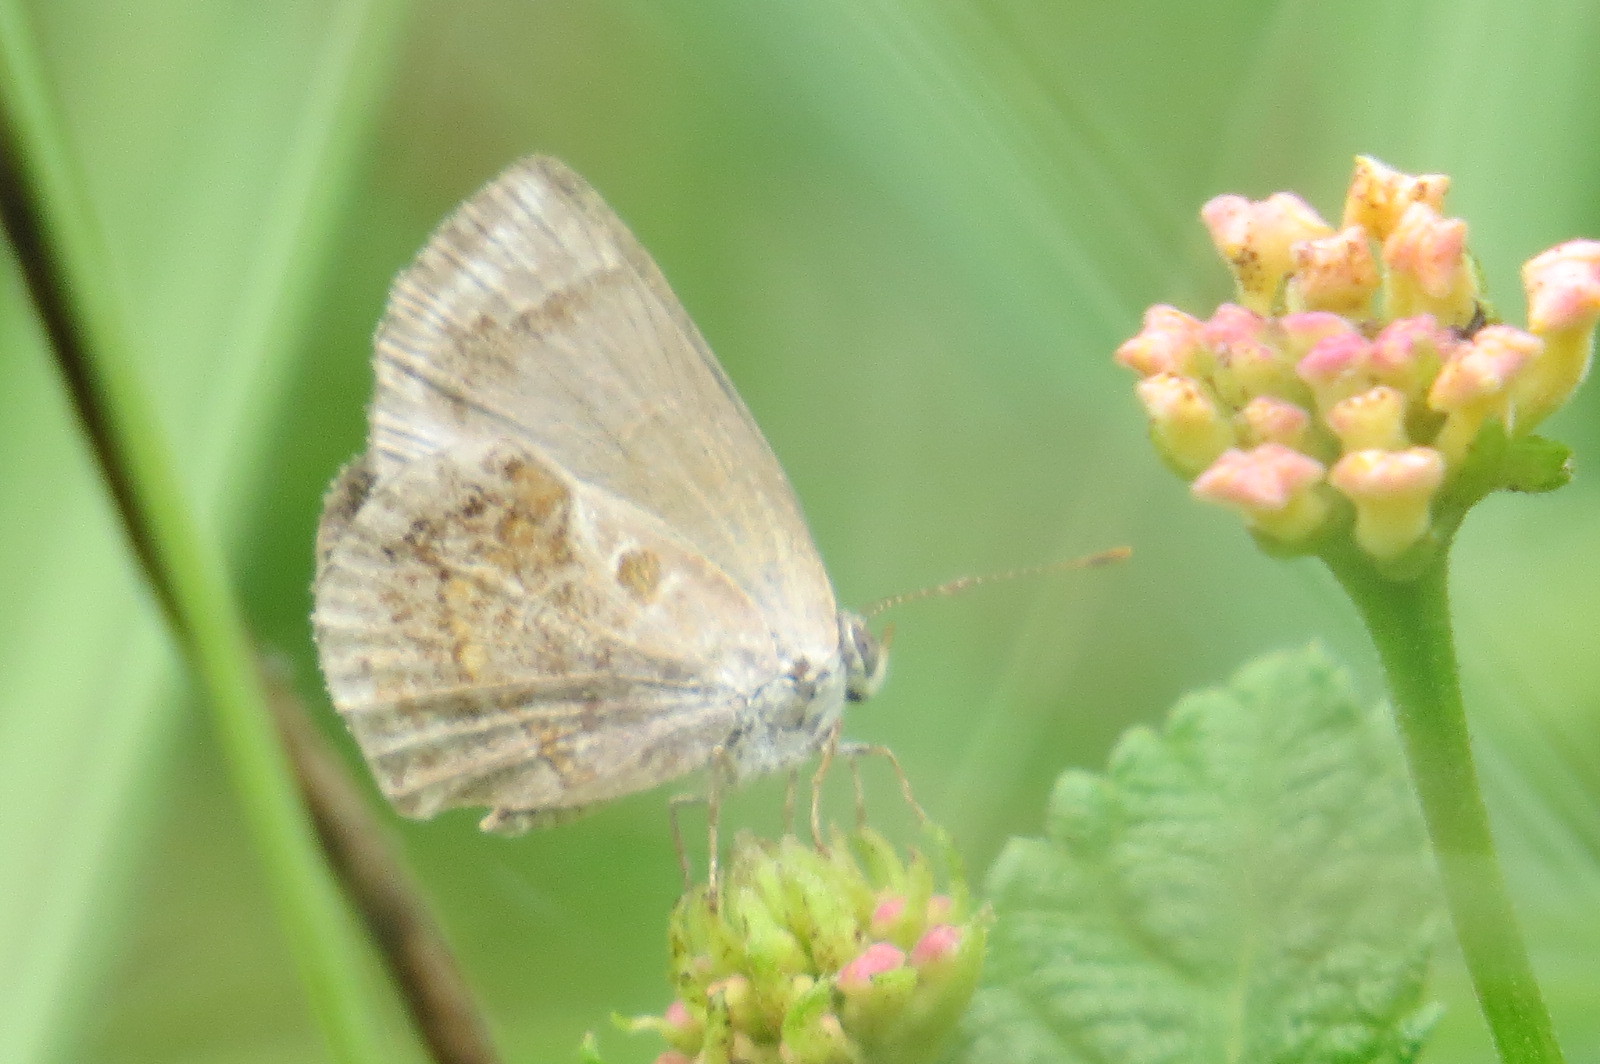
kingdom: Animalia
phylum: Arthropoda
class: Insecta
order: Lepidoptera
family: Lycaenidae
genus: Strymon
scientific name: Strymon bazochii
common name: Lantana scrub-hairstreak
